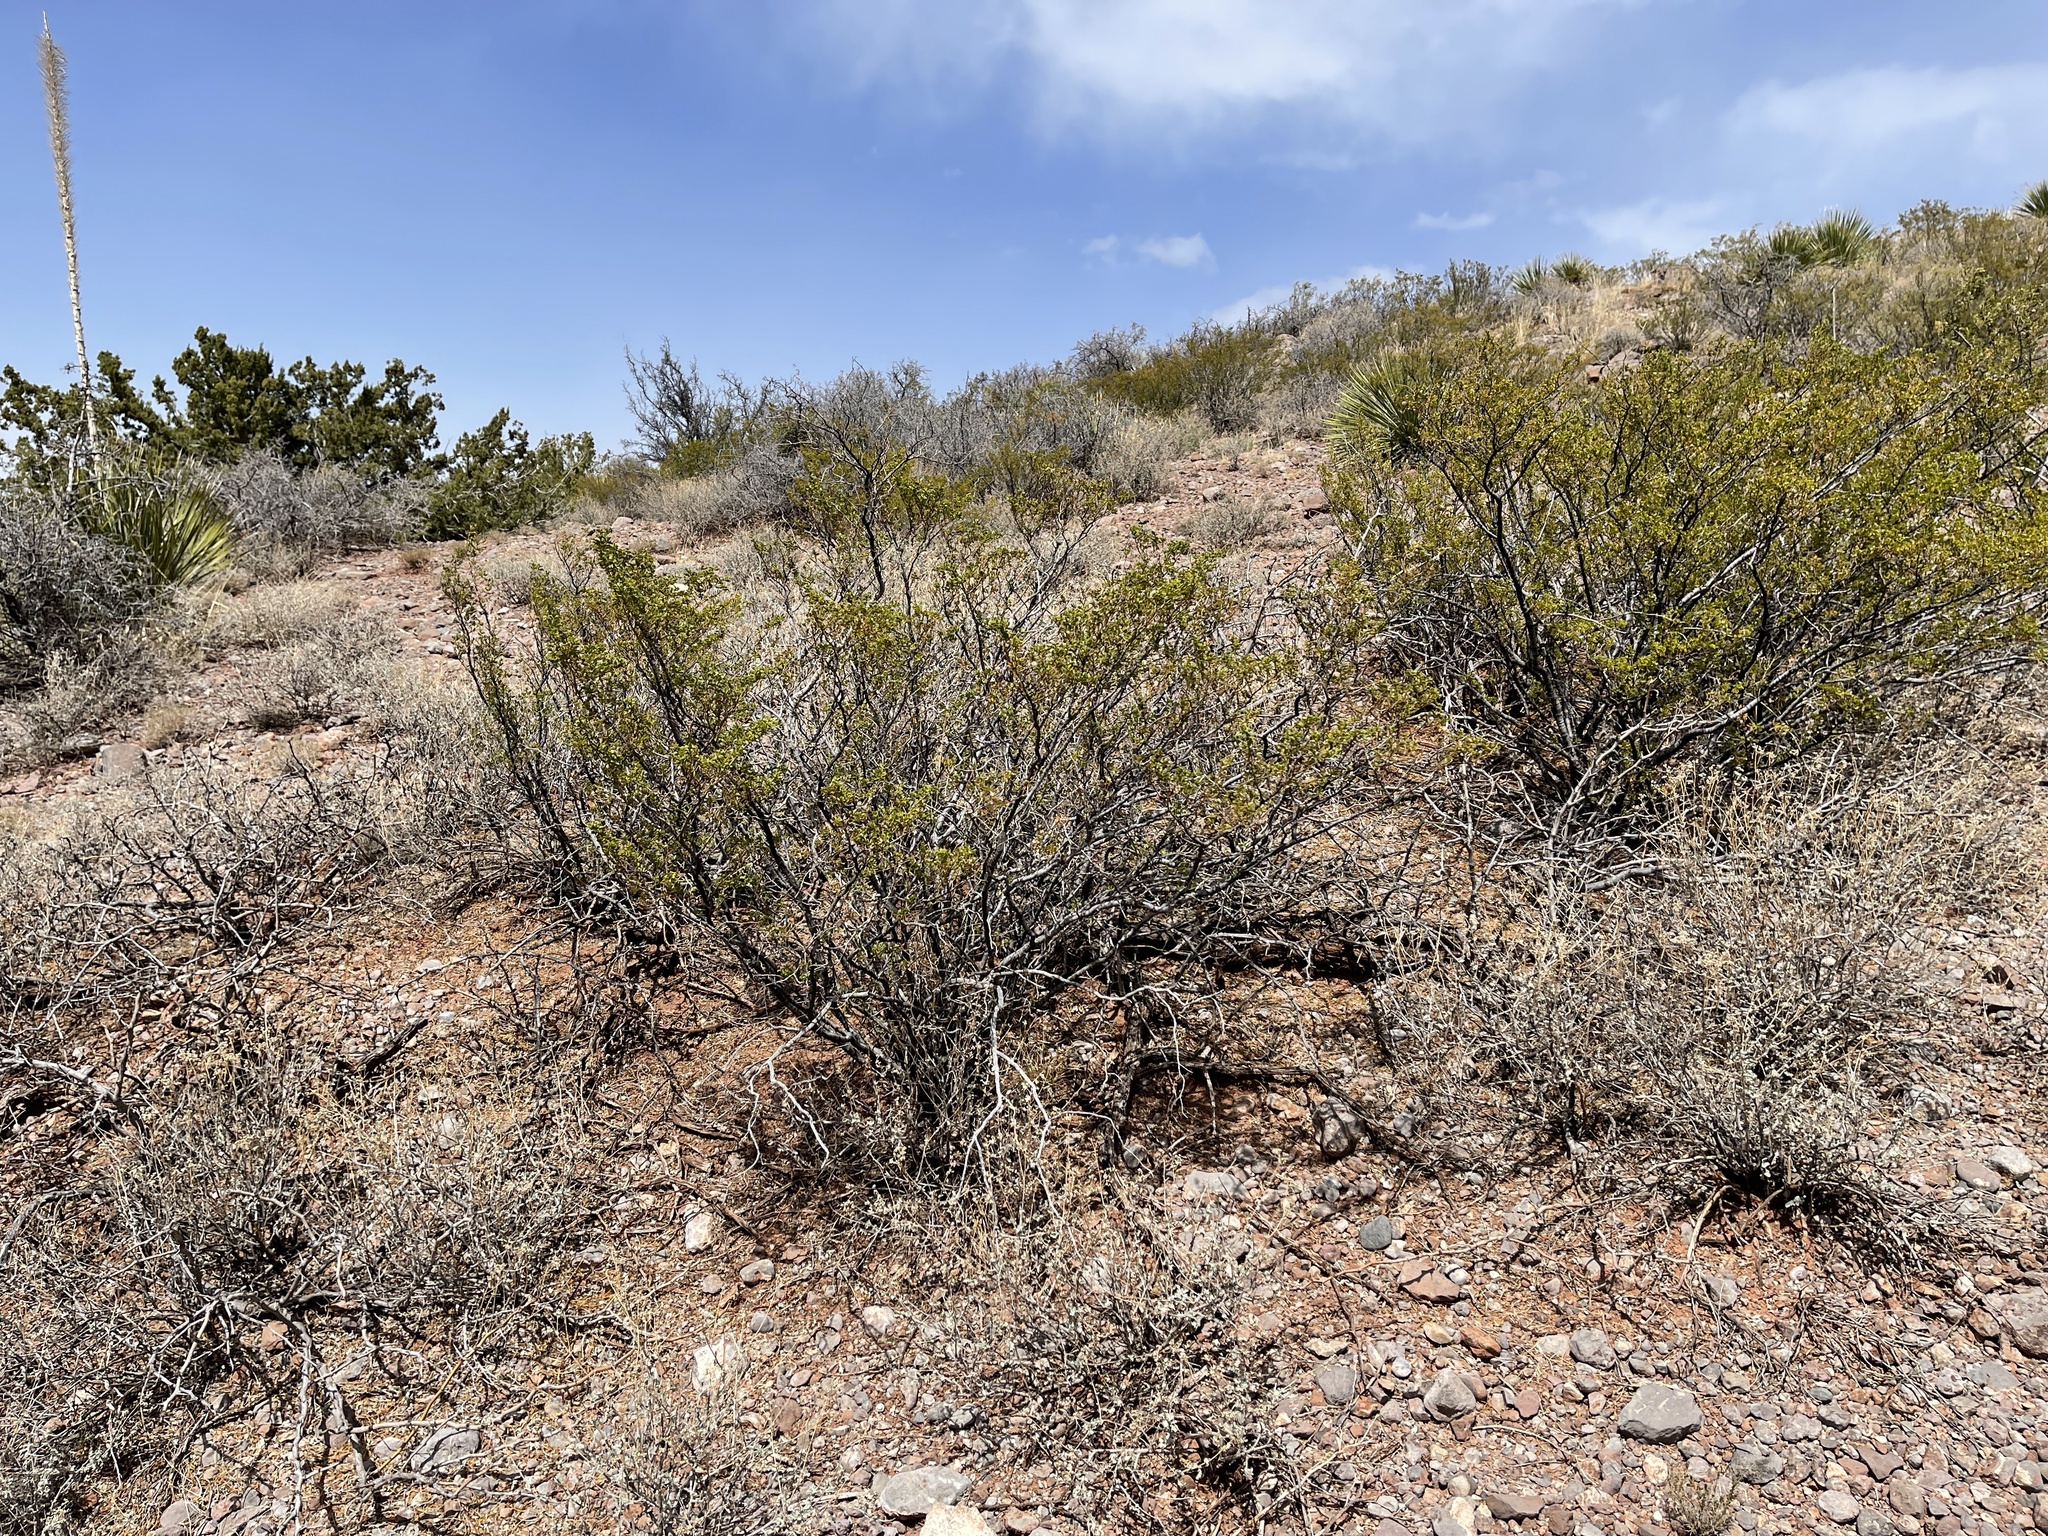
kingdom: Plantae
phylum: Tracheophyta
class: Magnoliopsida
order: Zygophyllales
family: Zygophyllaceae
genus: Larrea
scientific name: Larrea tridentata
